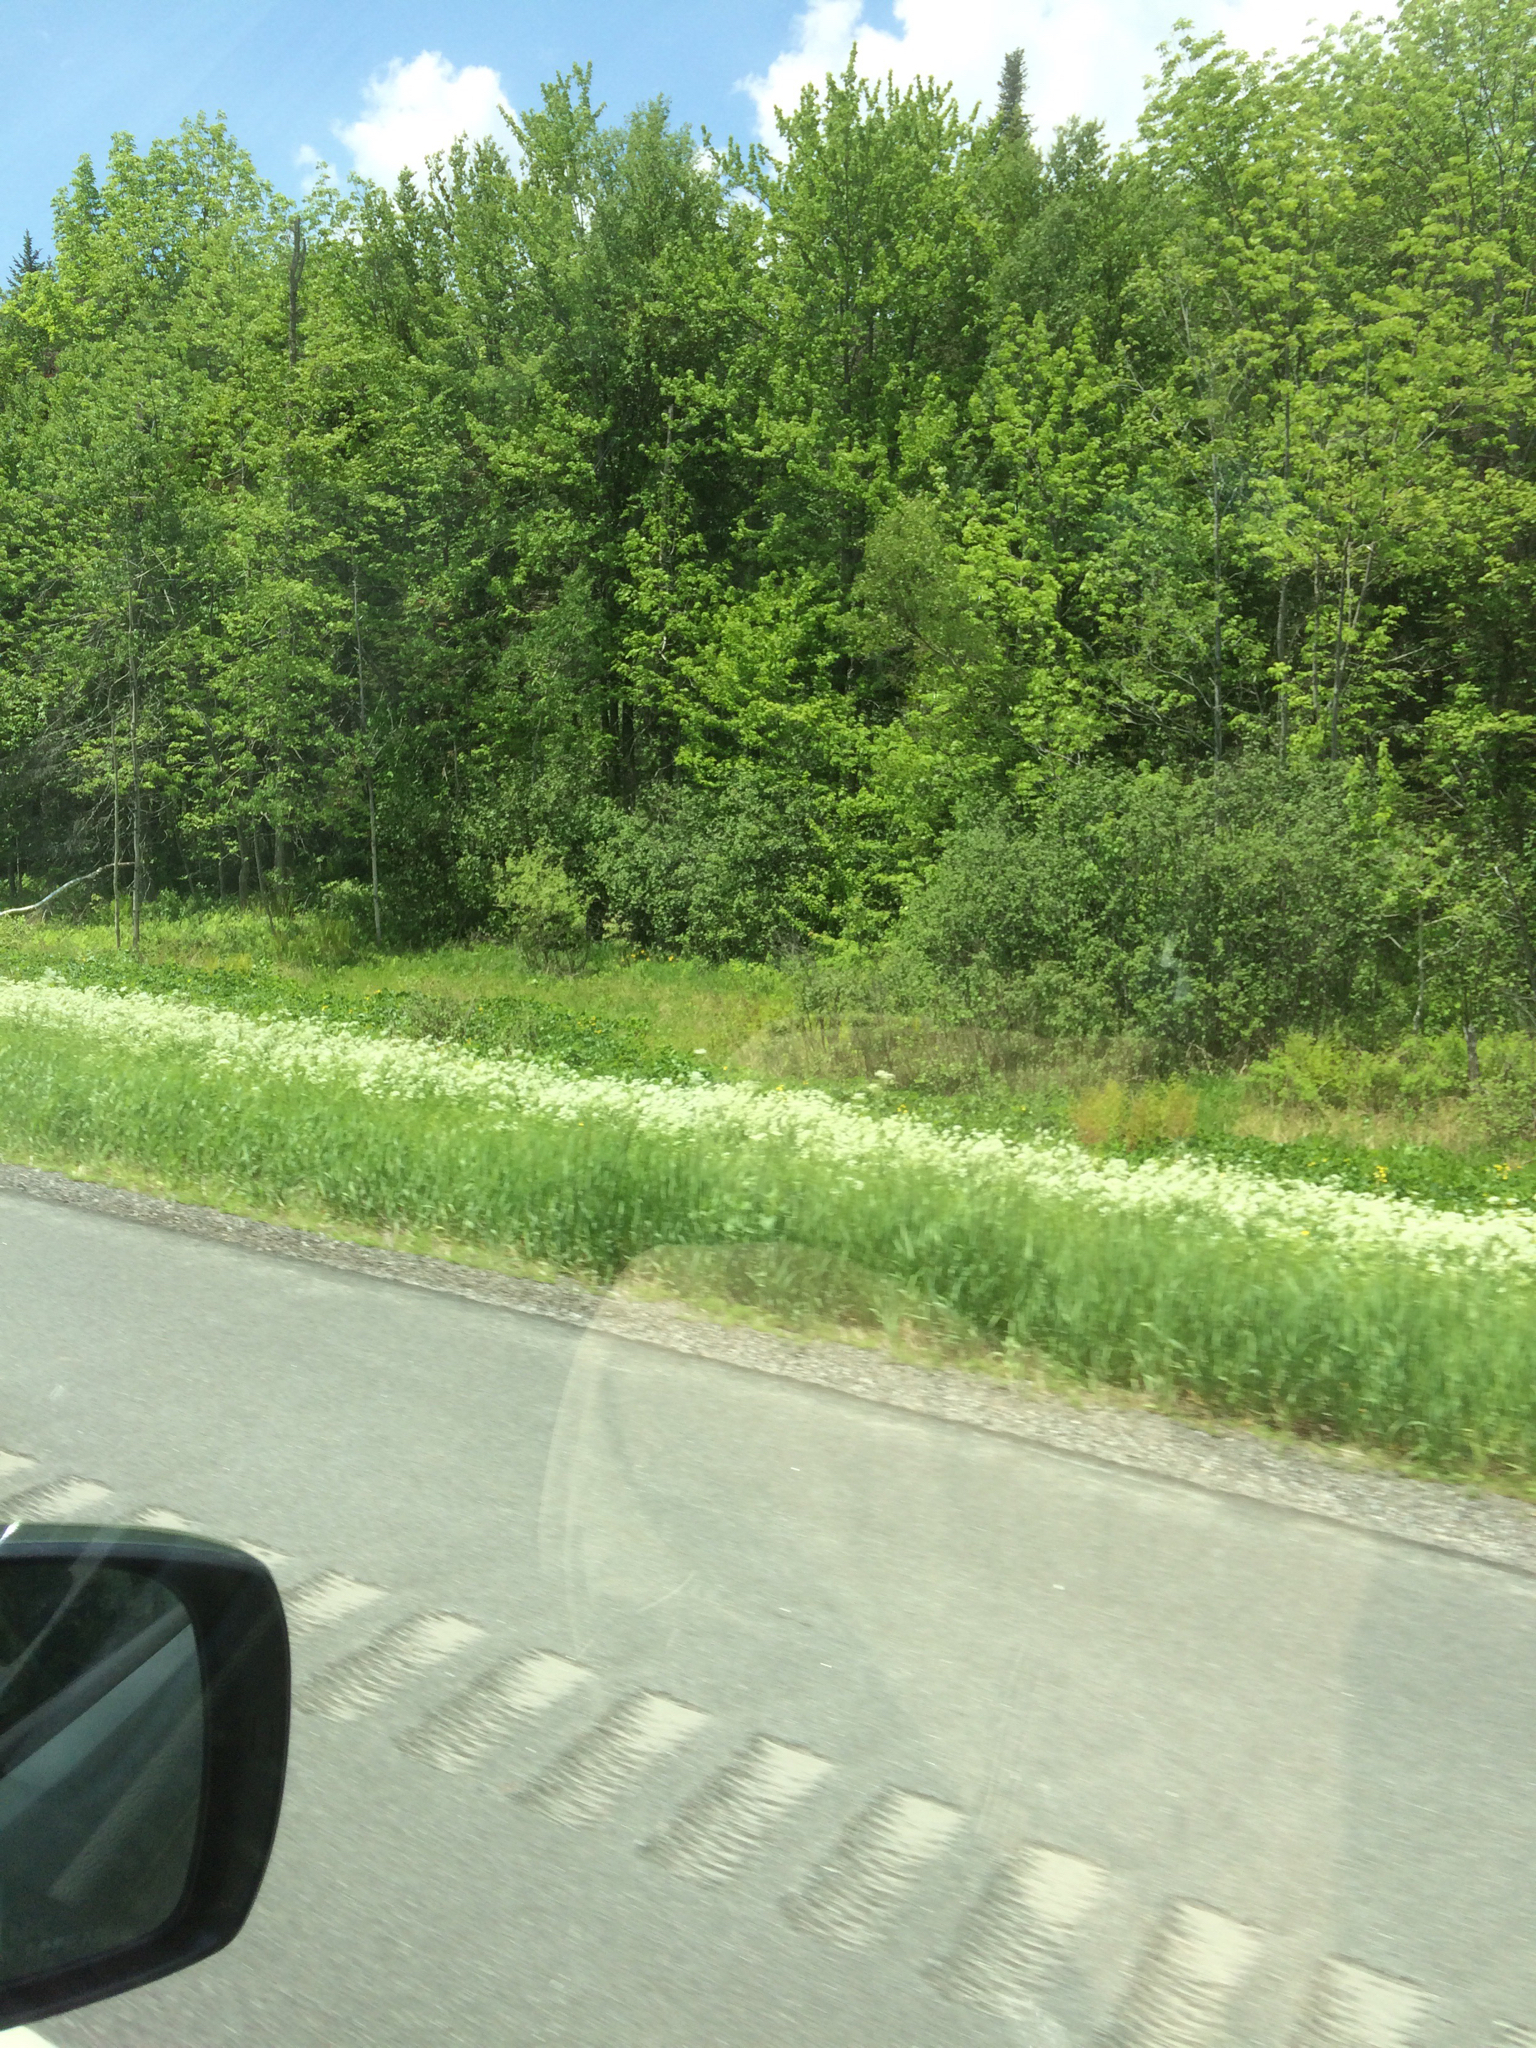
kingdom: Plantae
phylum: Tracheophyta
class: Magnoliopsida
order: Apiales
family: Apiaceae
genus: Anthriscus
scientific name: Anthriscus sylvestris
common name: Cow parsley
